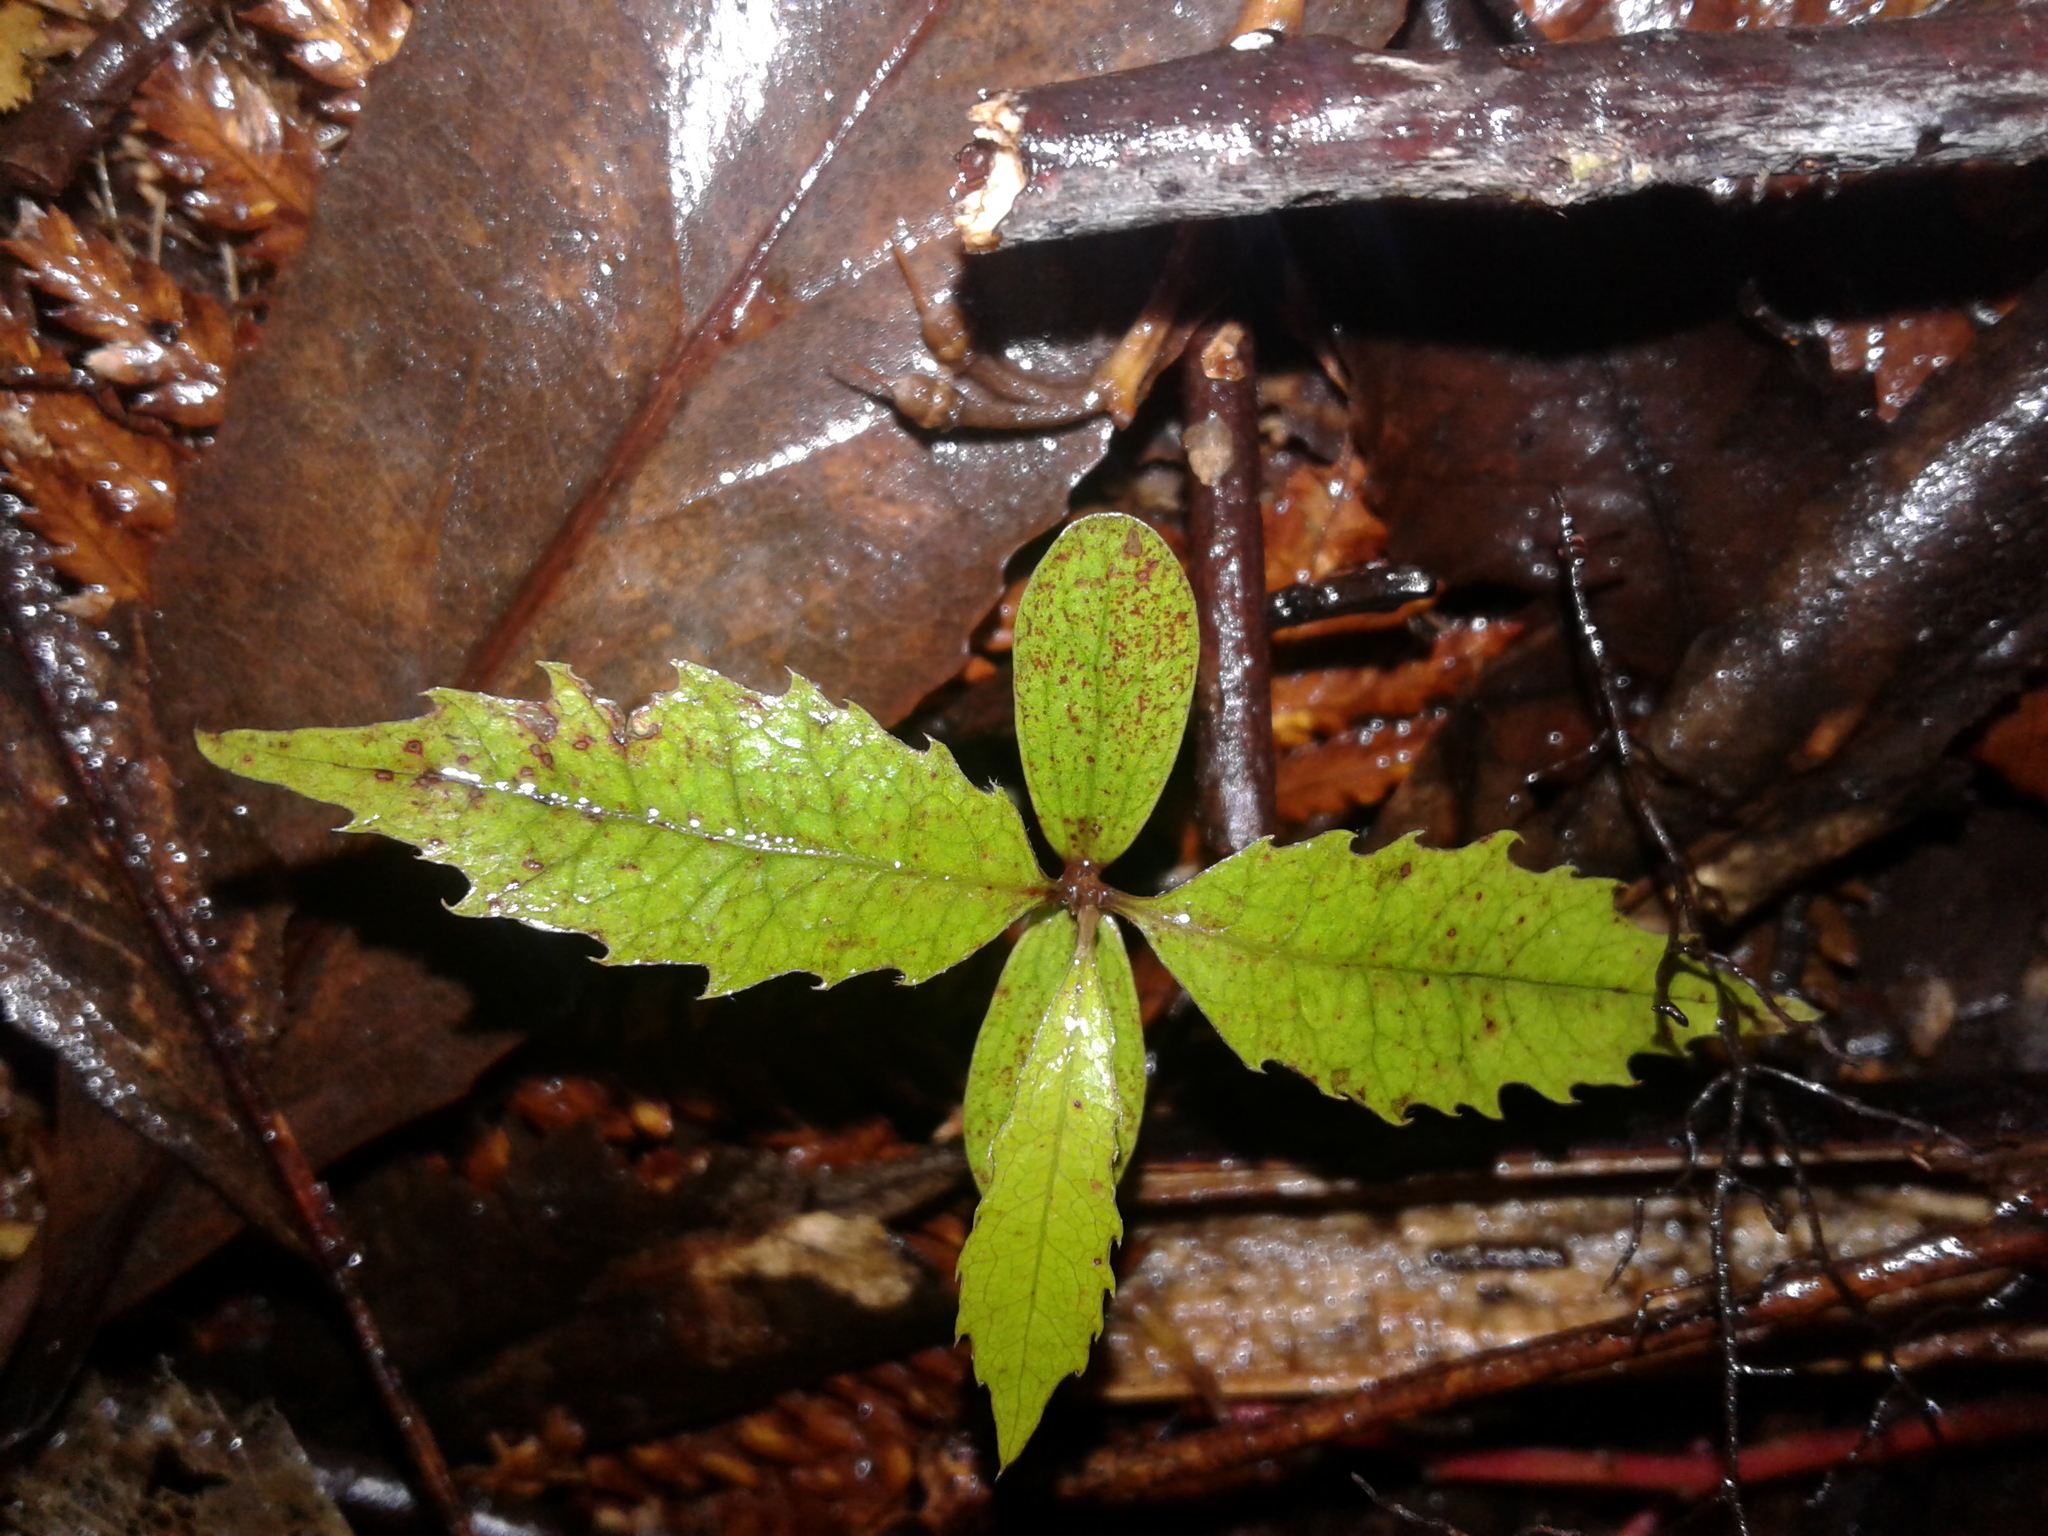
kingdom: Plantae
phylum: Tracheophyta
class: Magnoliopsida
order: Malvales
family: Malvaceae
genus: Hoheria
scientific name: Hoheria ovata
